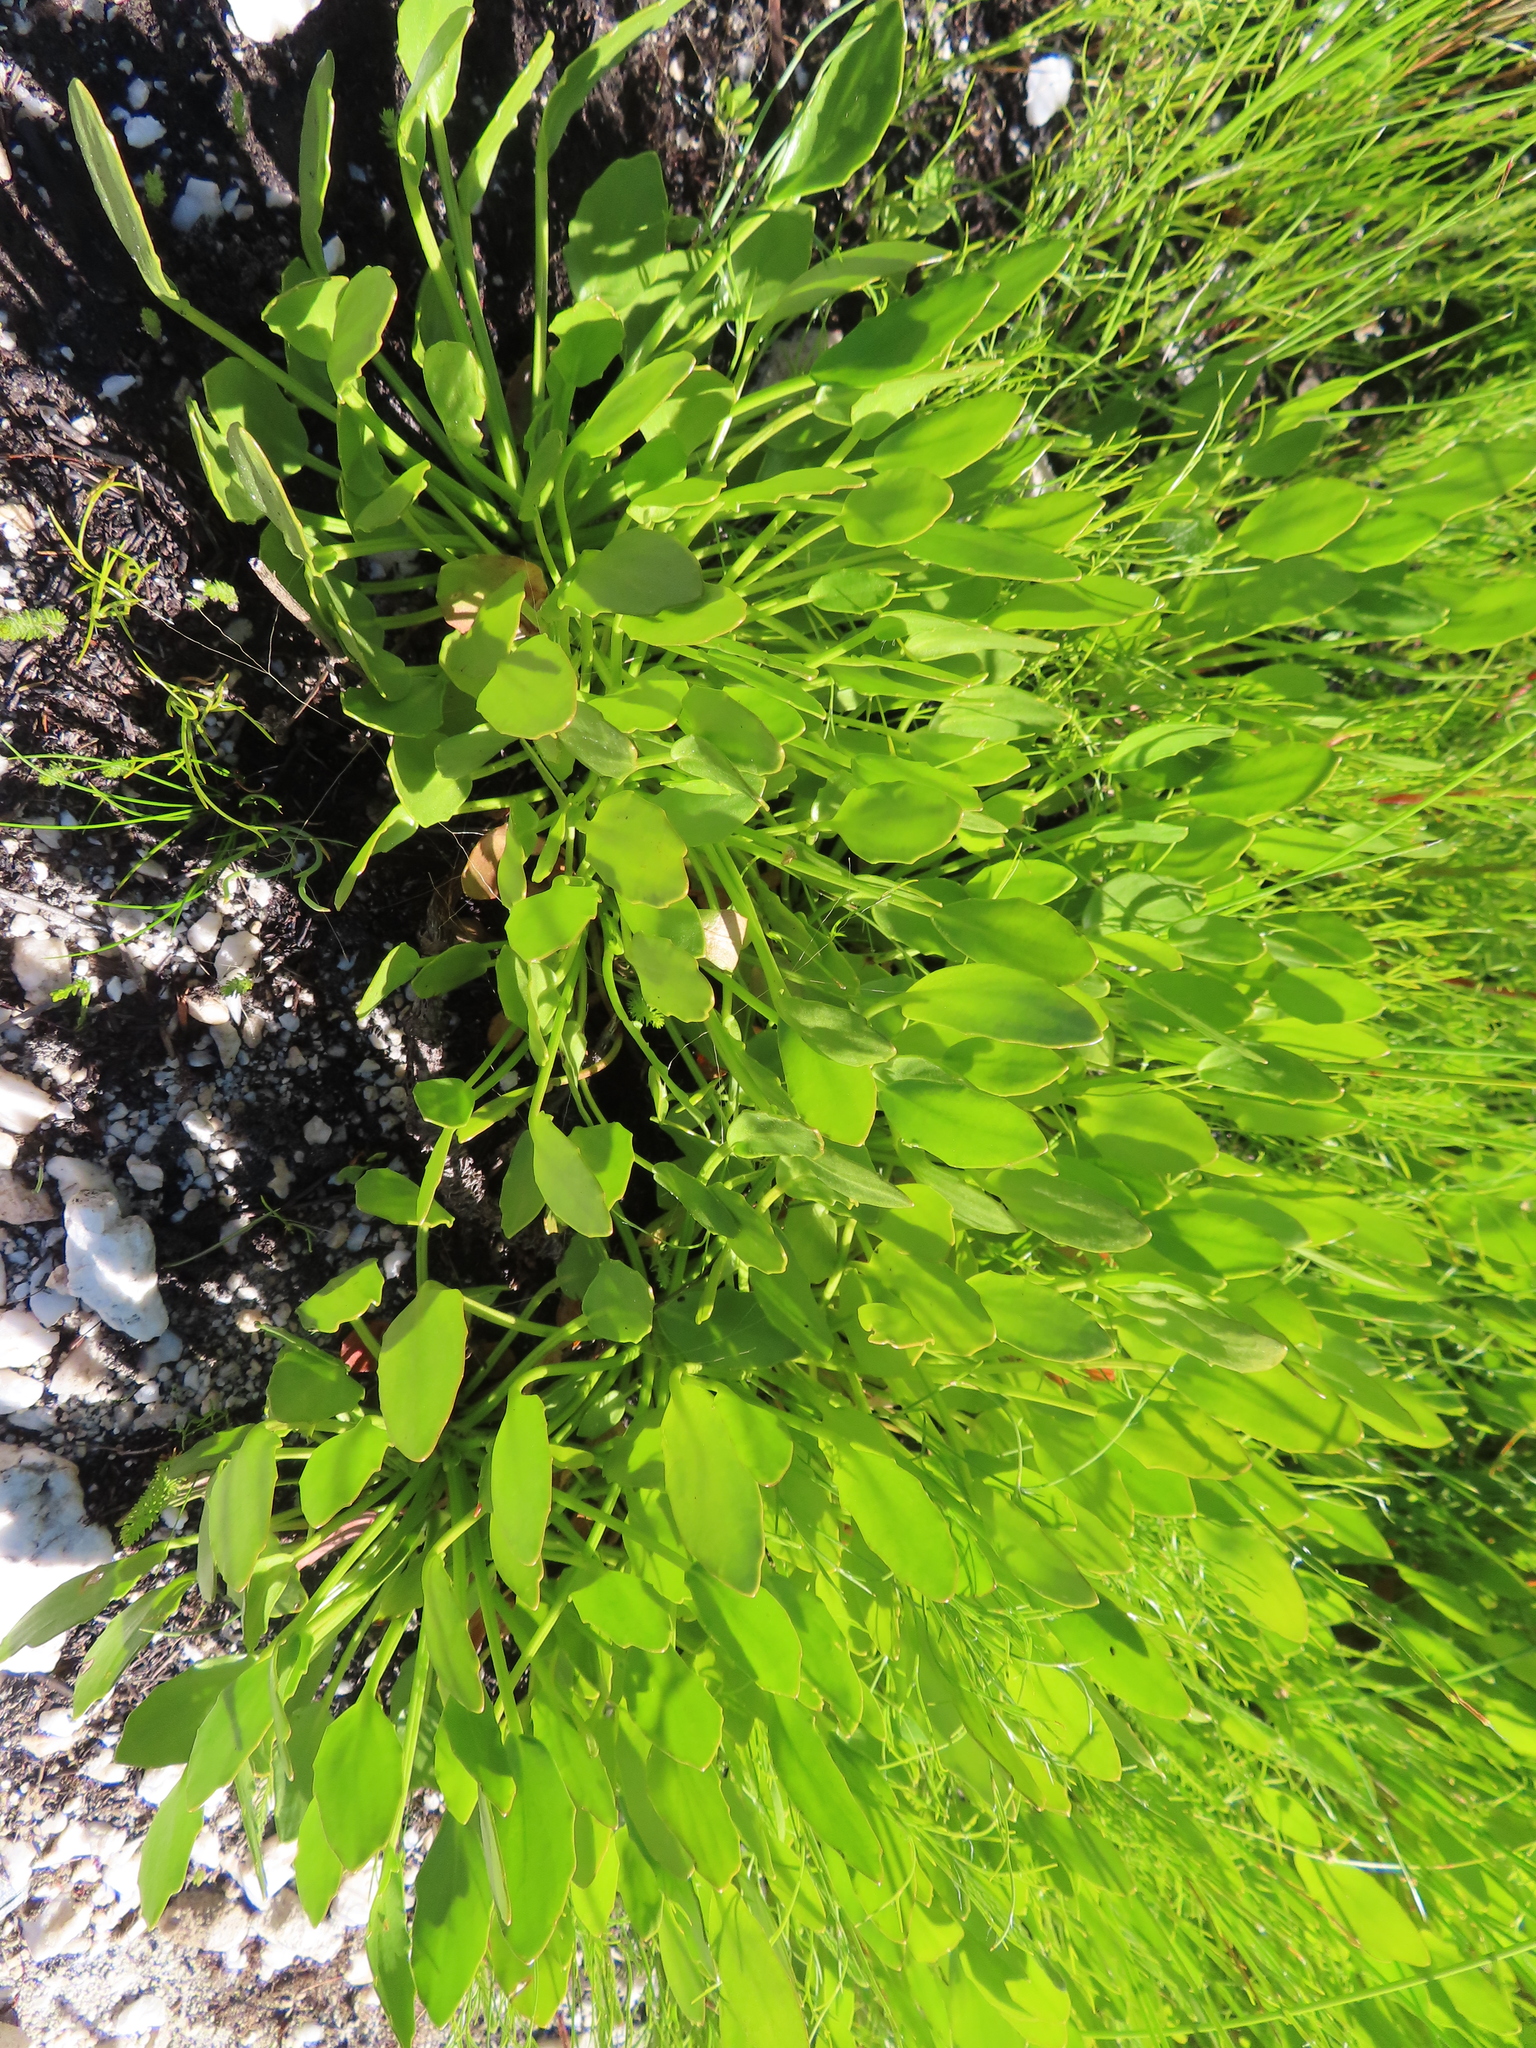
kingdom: Plantae
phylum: Tracheophyta
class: Magnoliopsida
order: Asterales
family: Menyanthaceae
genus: Villarsia
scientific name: Villarsia capensis
